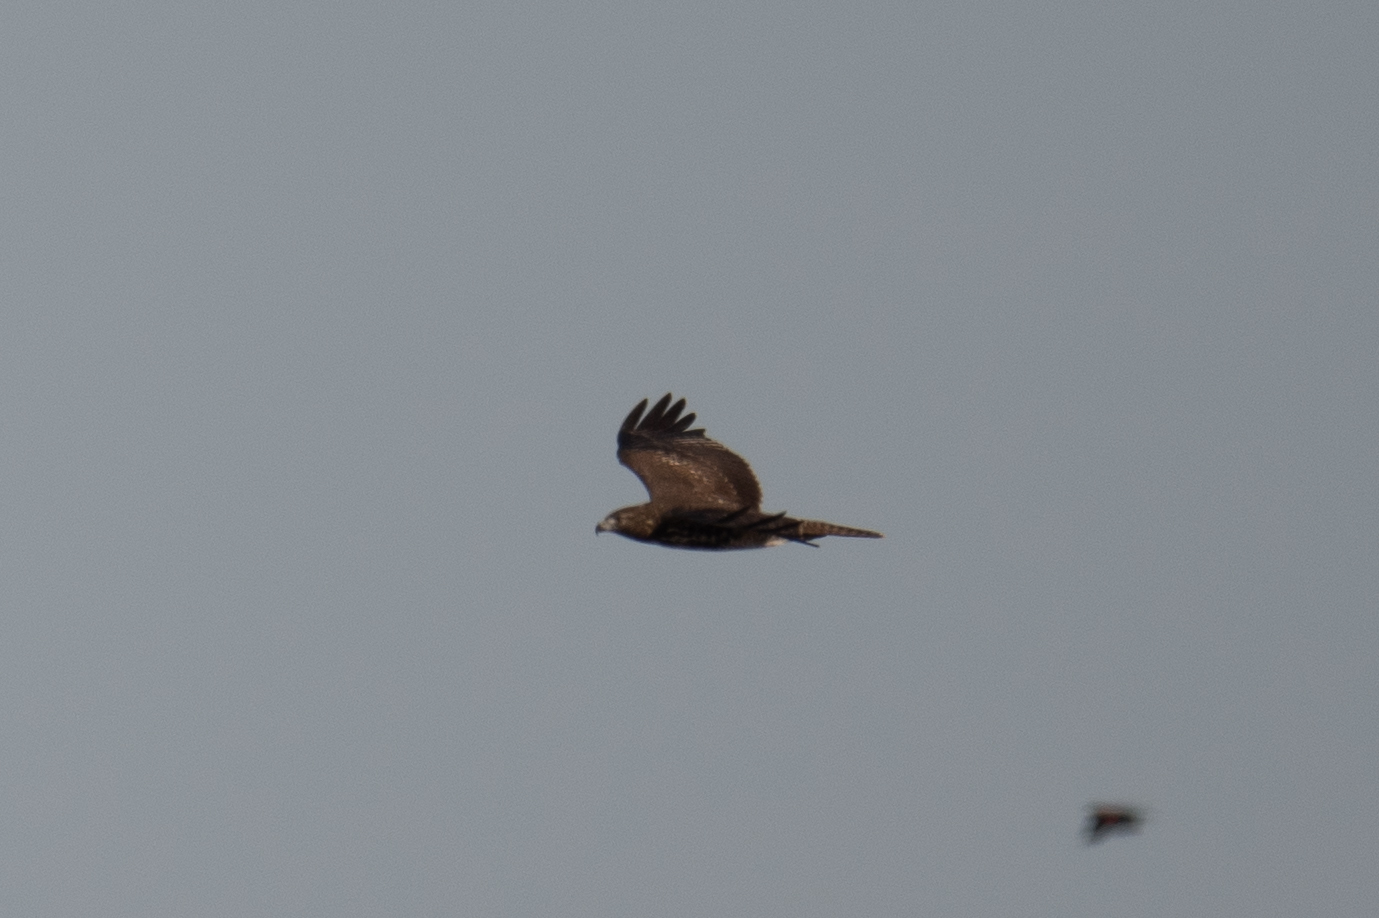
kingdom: Animalia
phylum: Chordata
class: Aves
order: Accipitriformes
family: Accipitridae
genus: Buteo
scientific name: Buteo jamaicensis
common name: Red-tailed hawk
